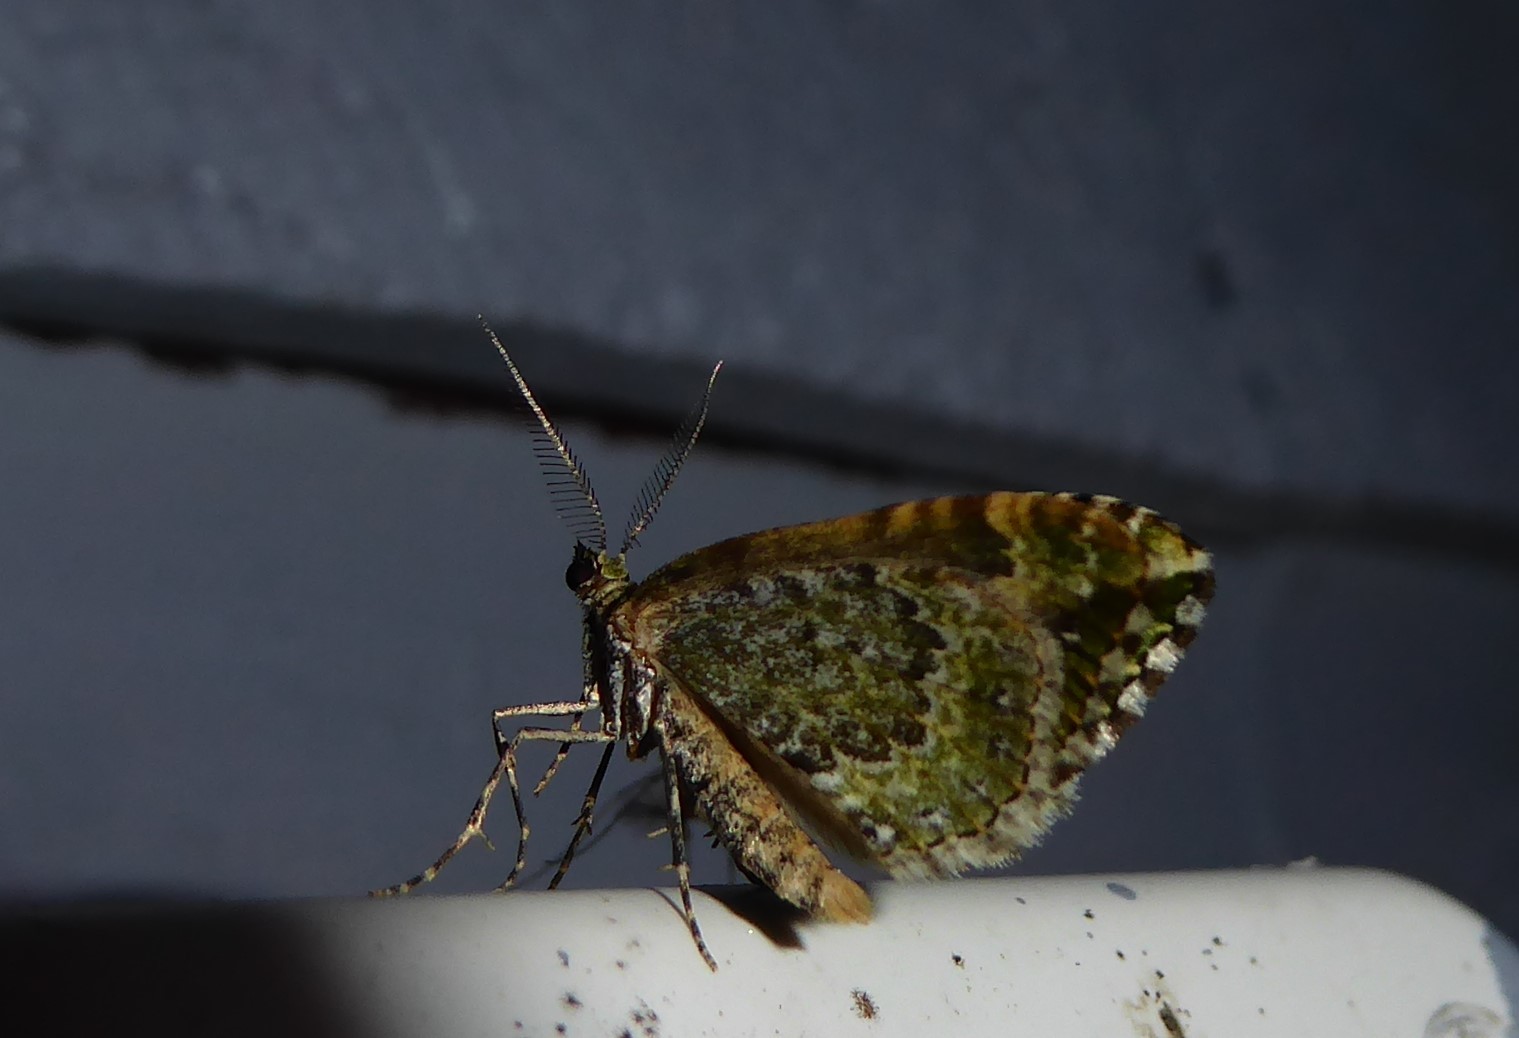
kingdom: Animalia
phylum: Arthropoda
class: Insecta
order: Lepidoptera
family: Geometridae
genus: Asaphodes
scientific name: Asaphodes beata
